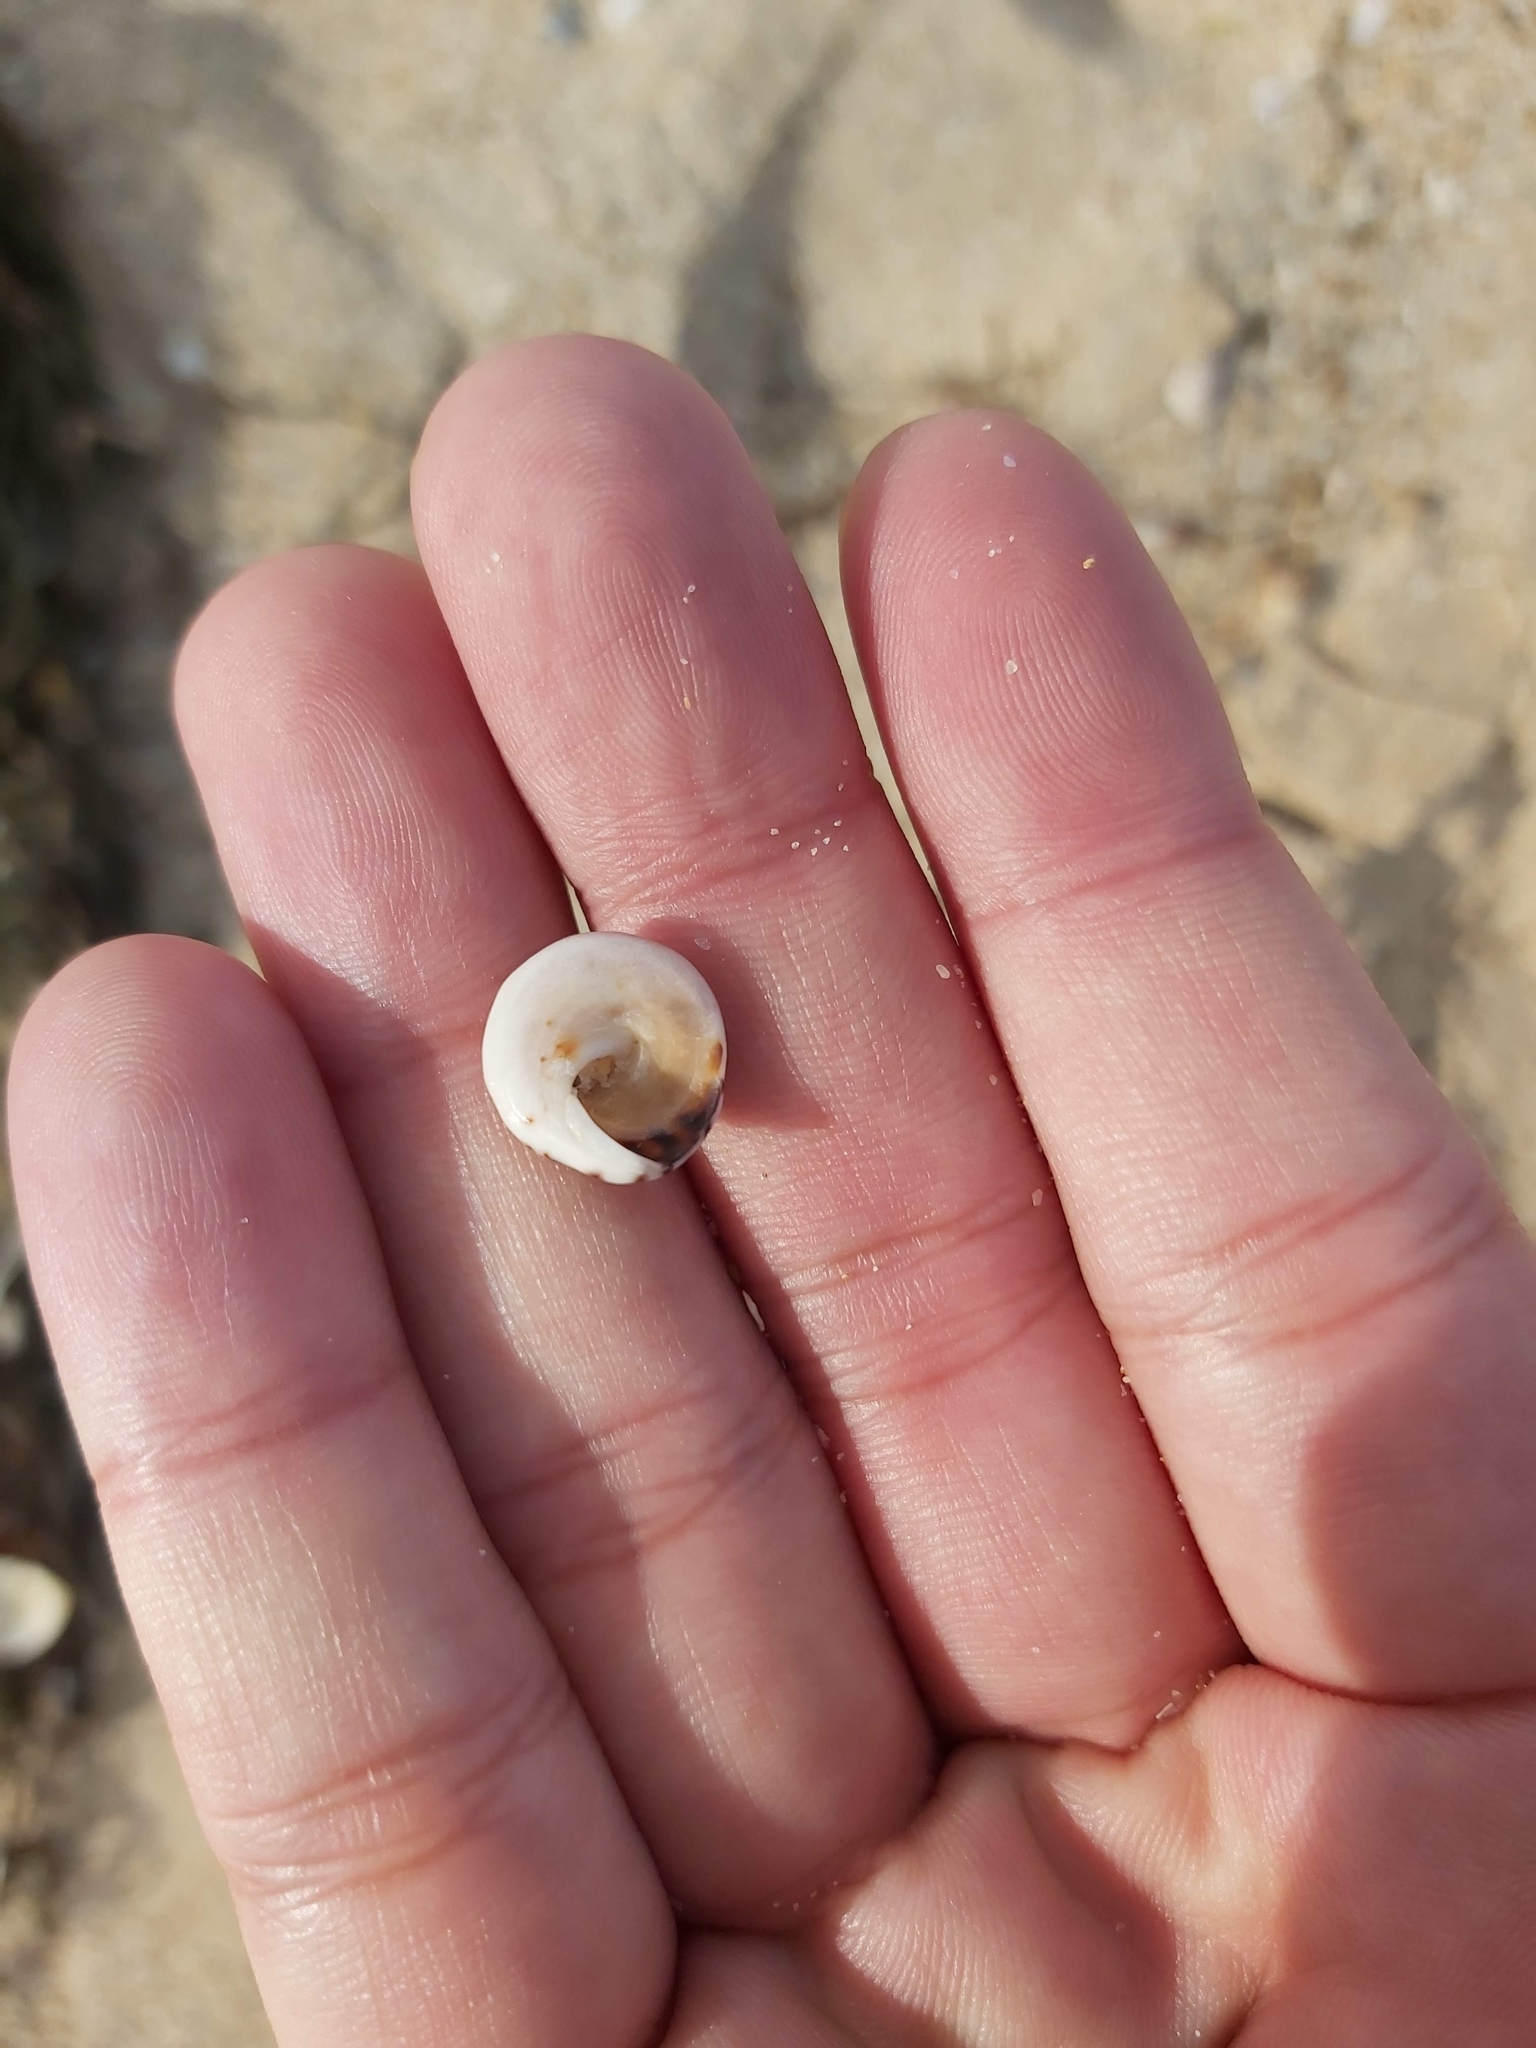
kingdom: Animalia
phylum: Mollusca
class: Gastropoda
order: Littorinimorpha
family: Littorinidae
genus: Bembicium
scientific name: Bembicium nanum
